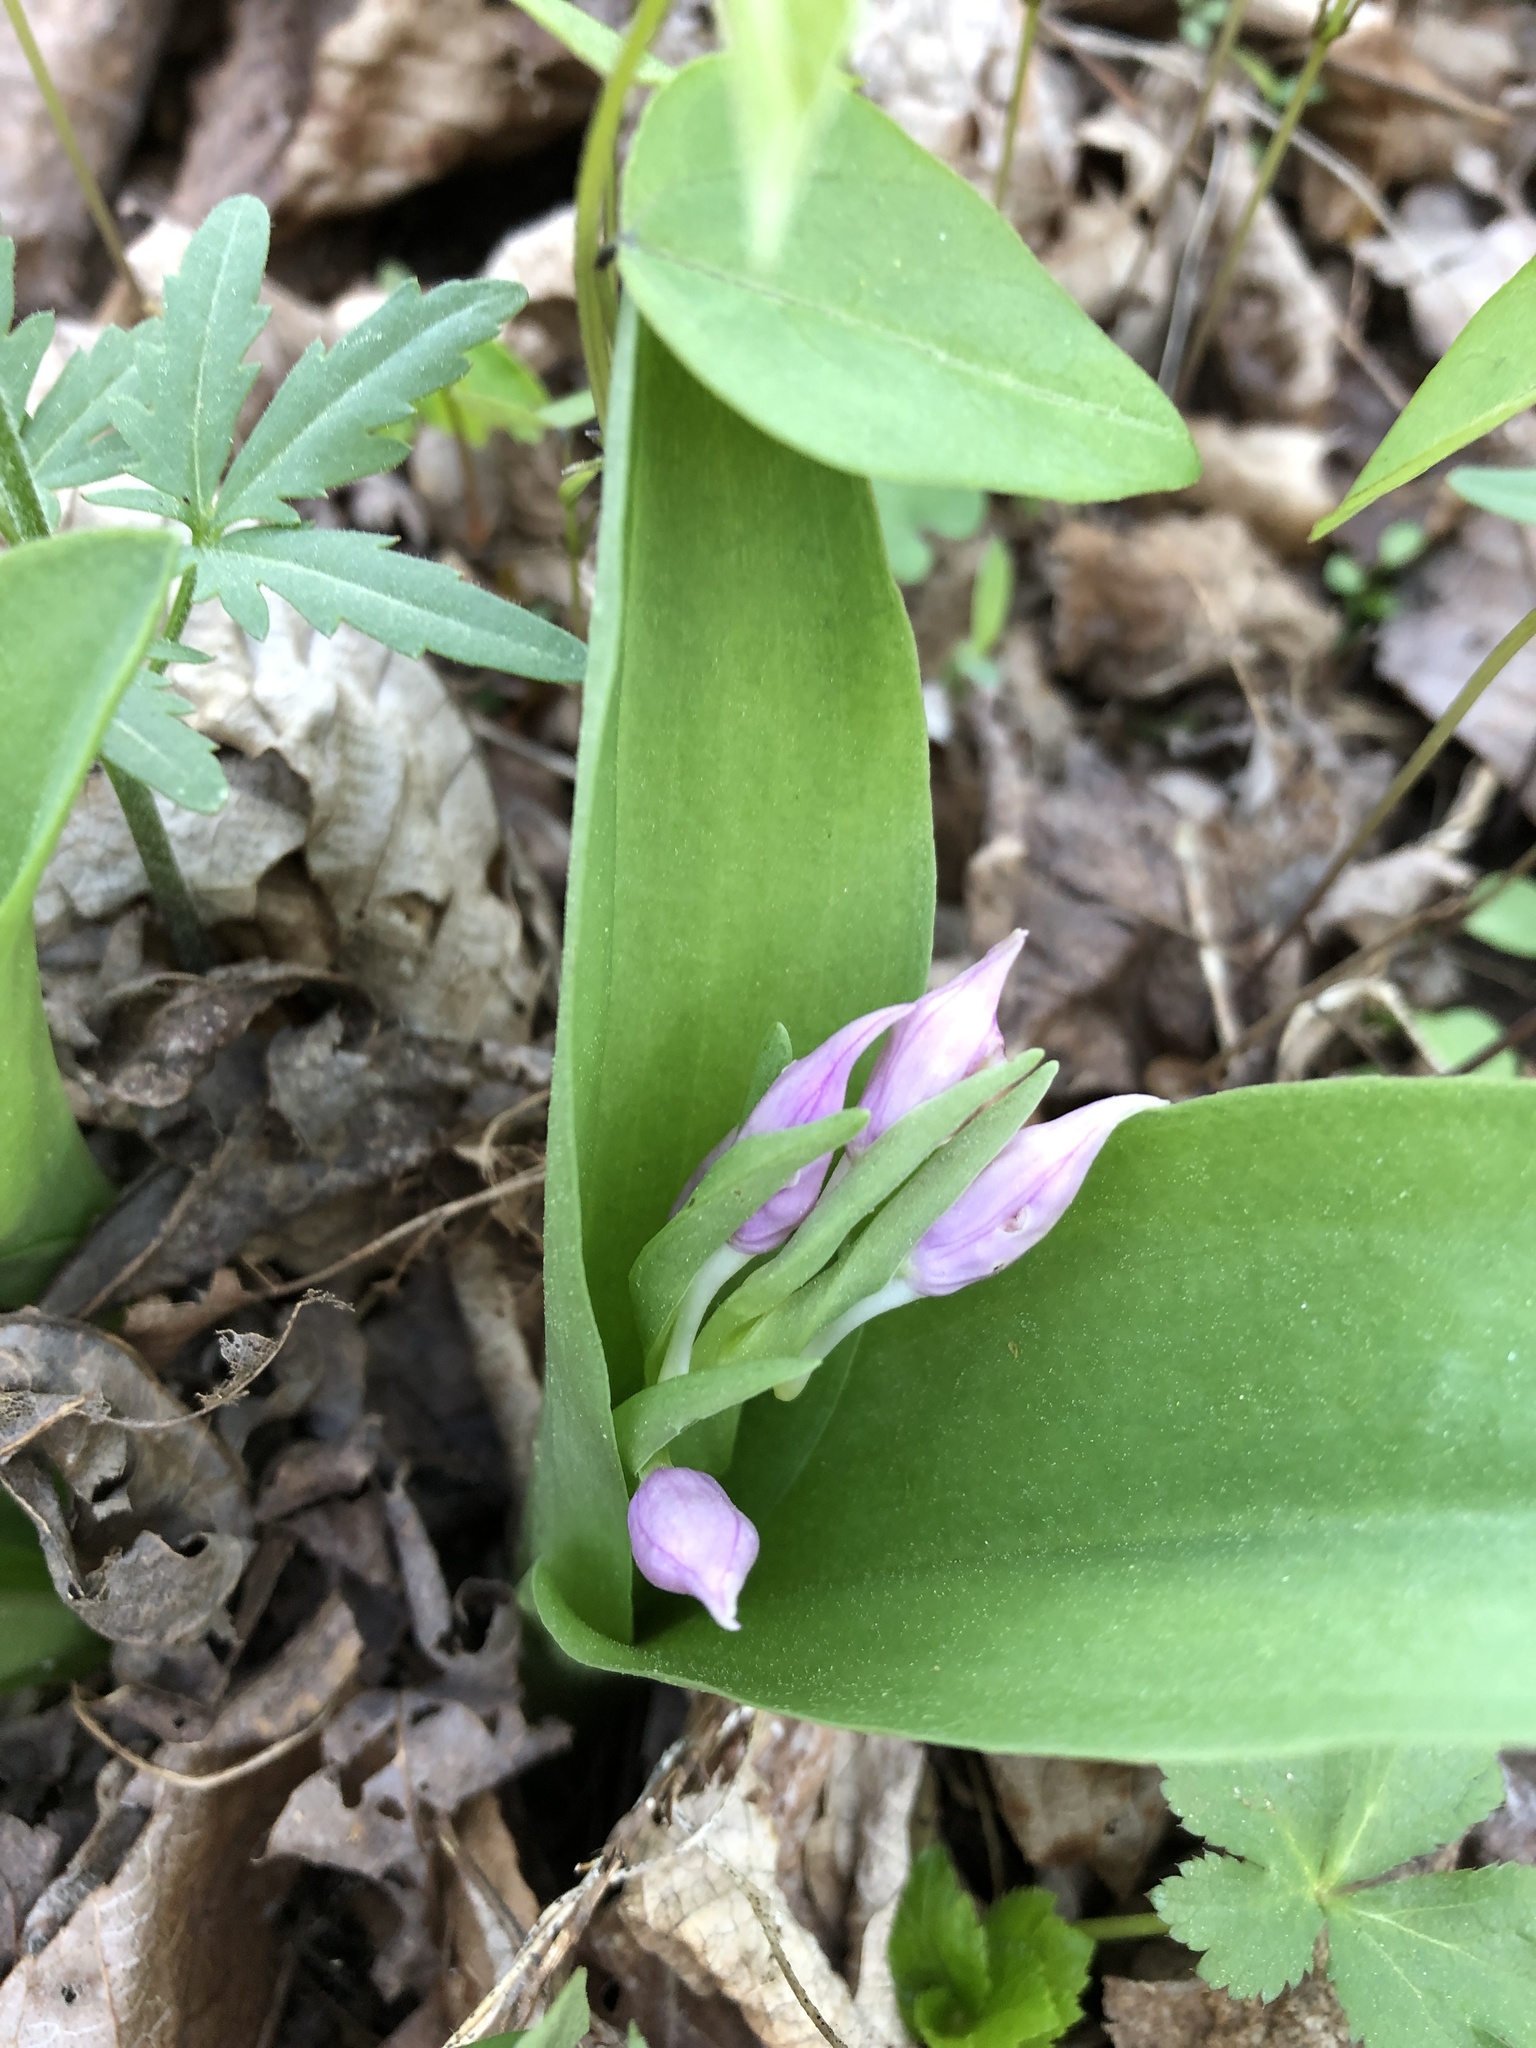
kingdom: Plantae
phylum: Tracheophyta
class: Liliopsida
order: Asparagales
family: Orchidaceae
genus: Galearis
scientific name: Galearis spectabilis
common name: Purple-hooded orchis
